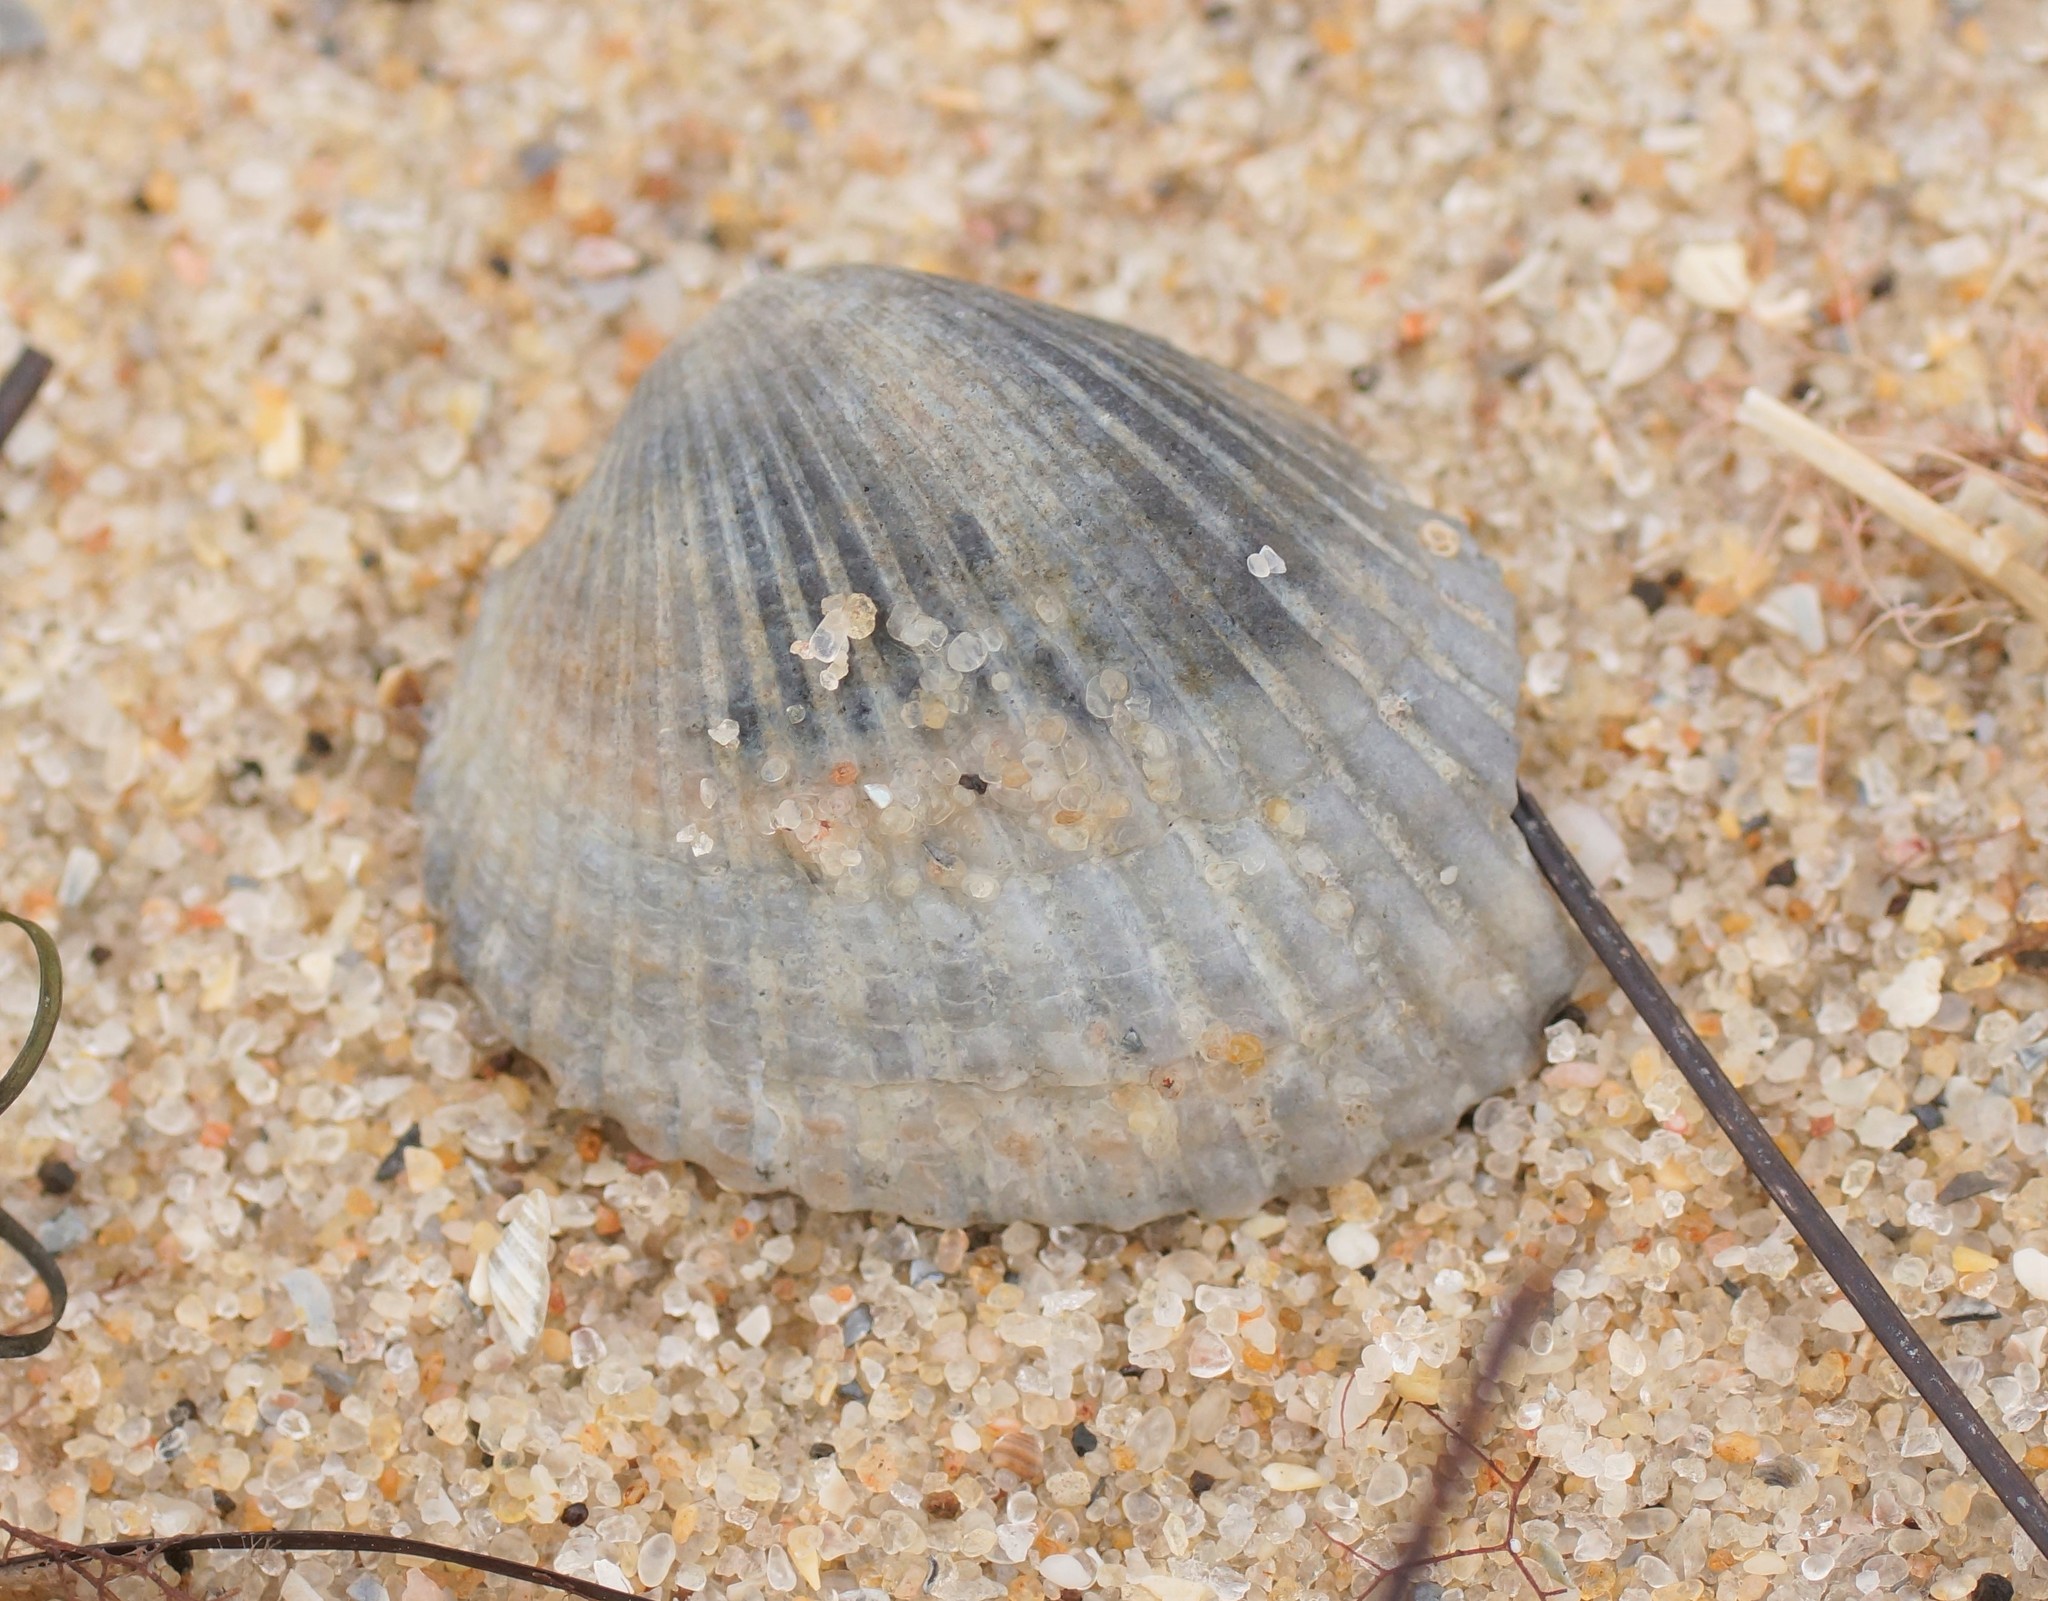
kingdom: Animalia
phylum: Mollusca
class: Bivalvia
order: Arcida
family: Arcidae
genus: Anadara
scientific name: Anadara trapezia
